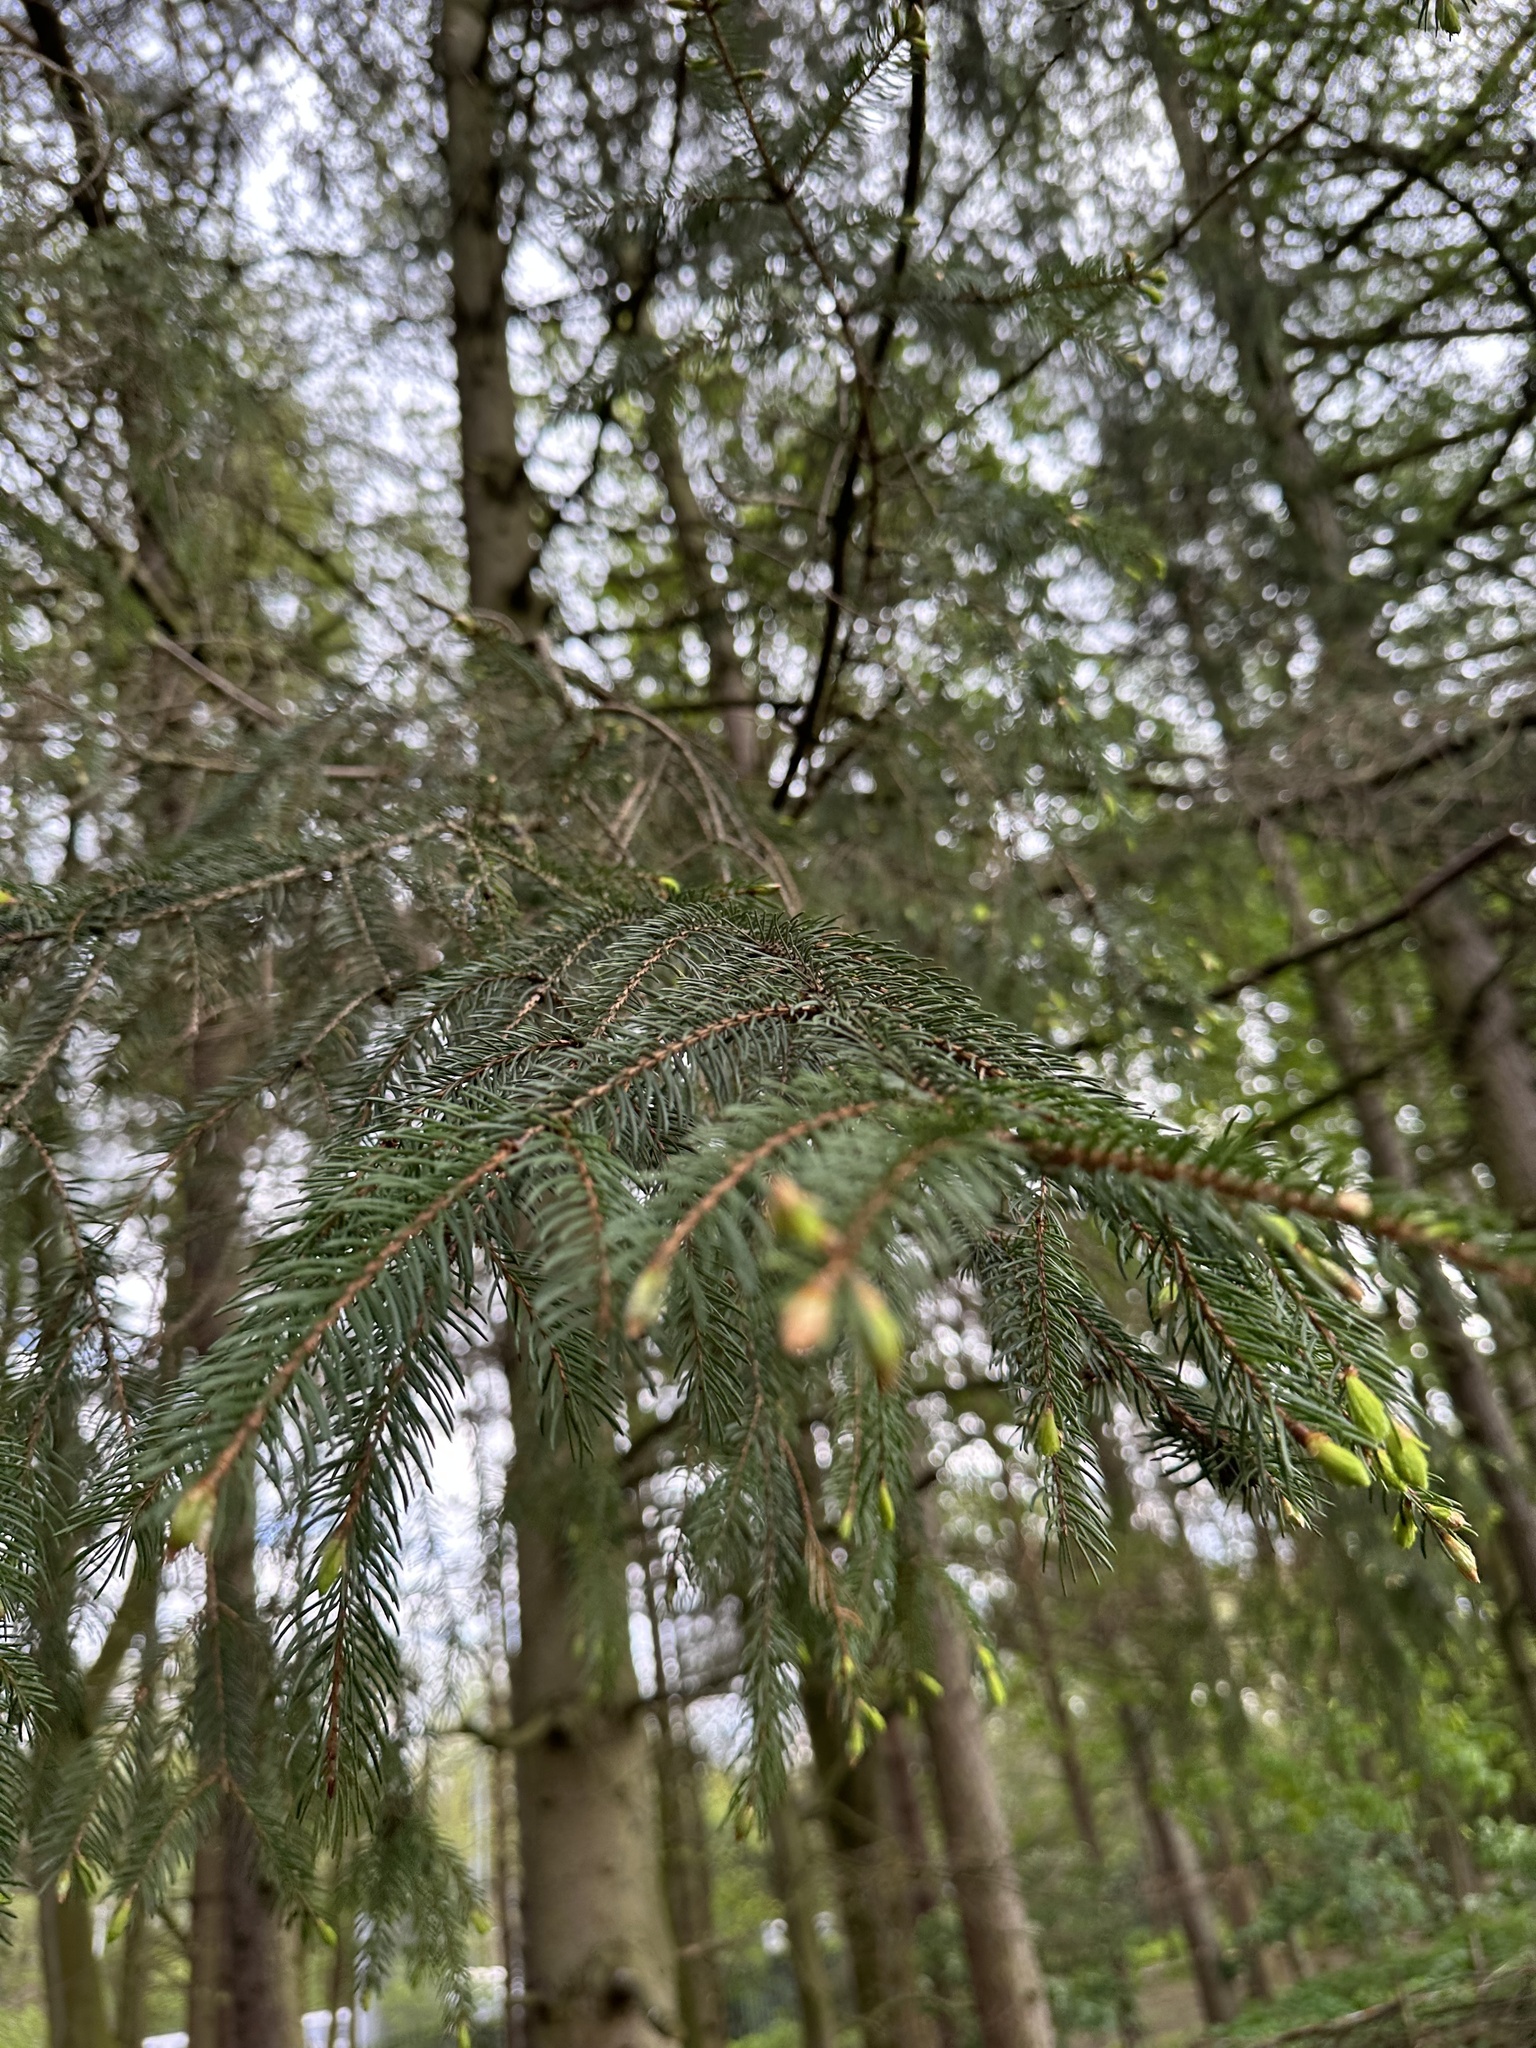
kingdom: Plantae
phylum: Tracheophyta
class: Pinopsida
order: Pinales
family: Pinaceae
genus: Picea
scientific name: Picea abies
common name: Norway spruce
